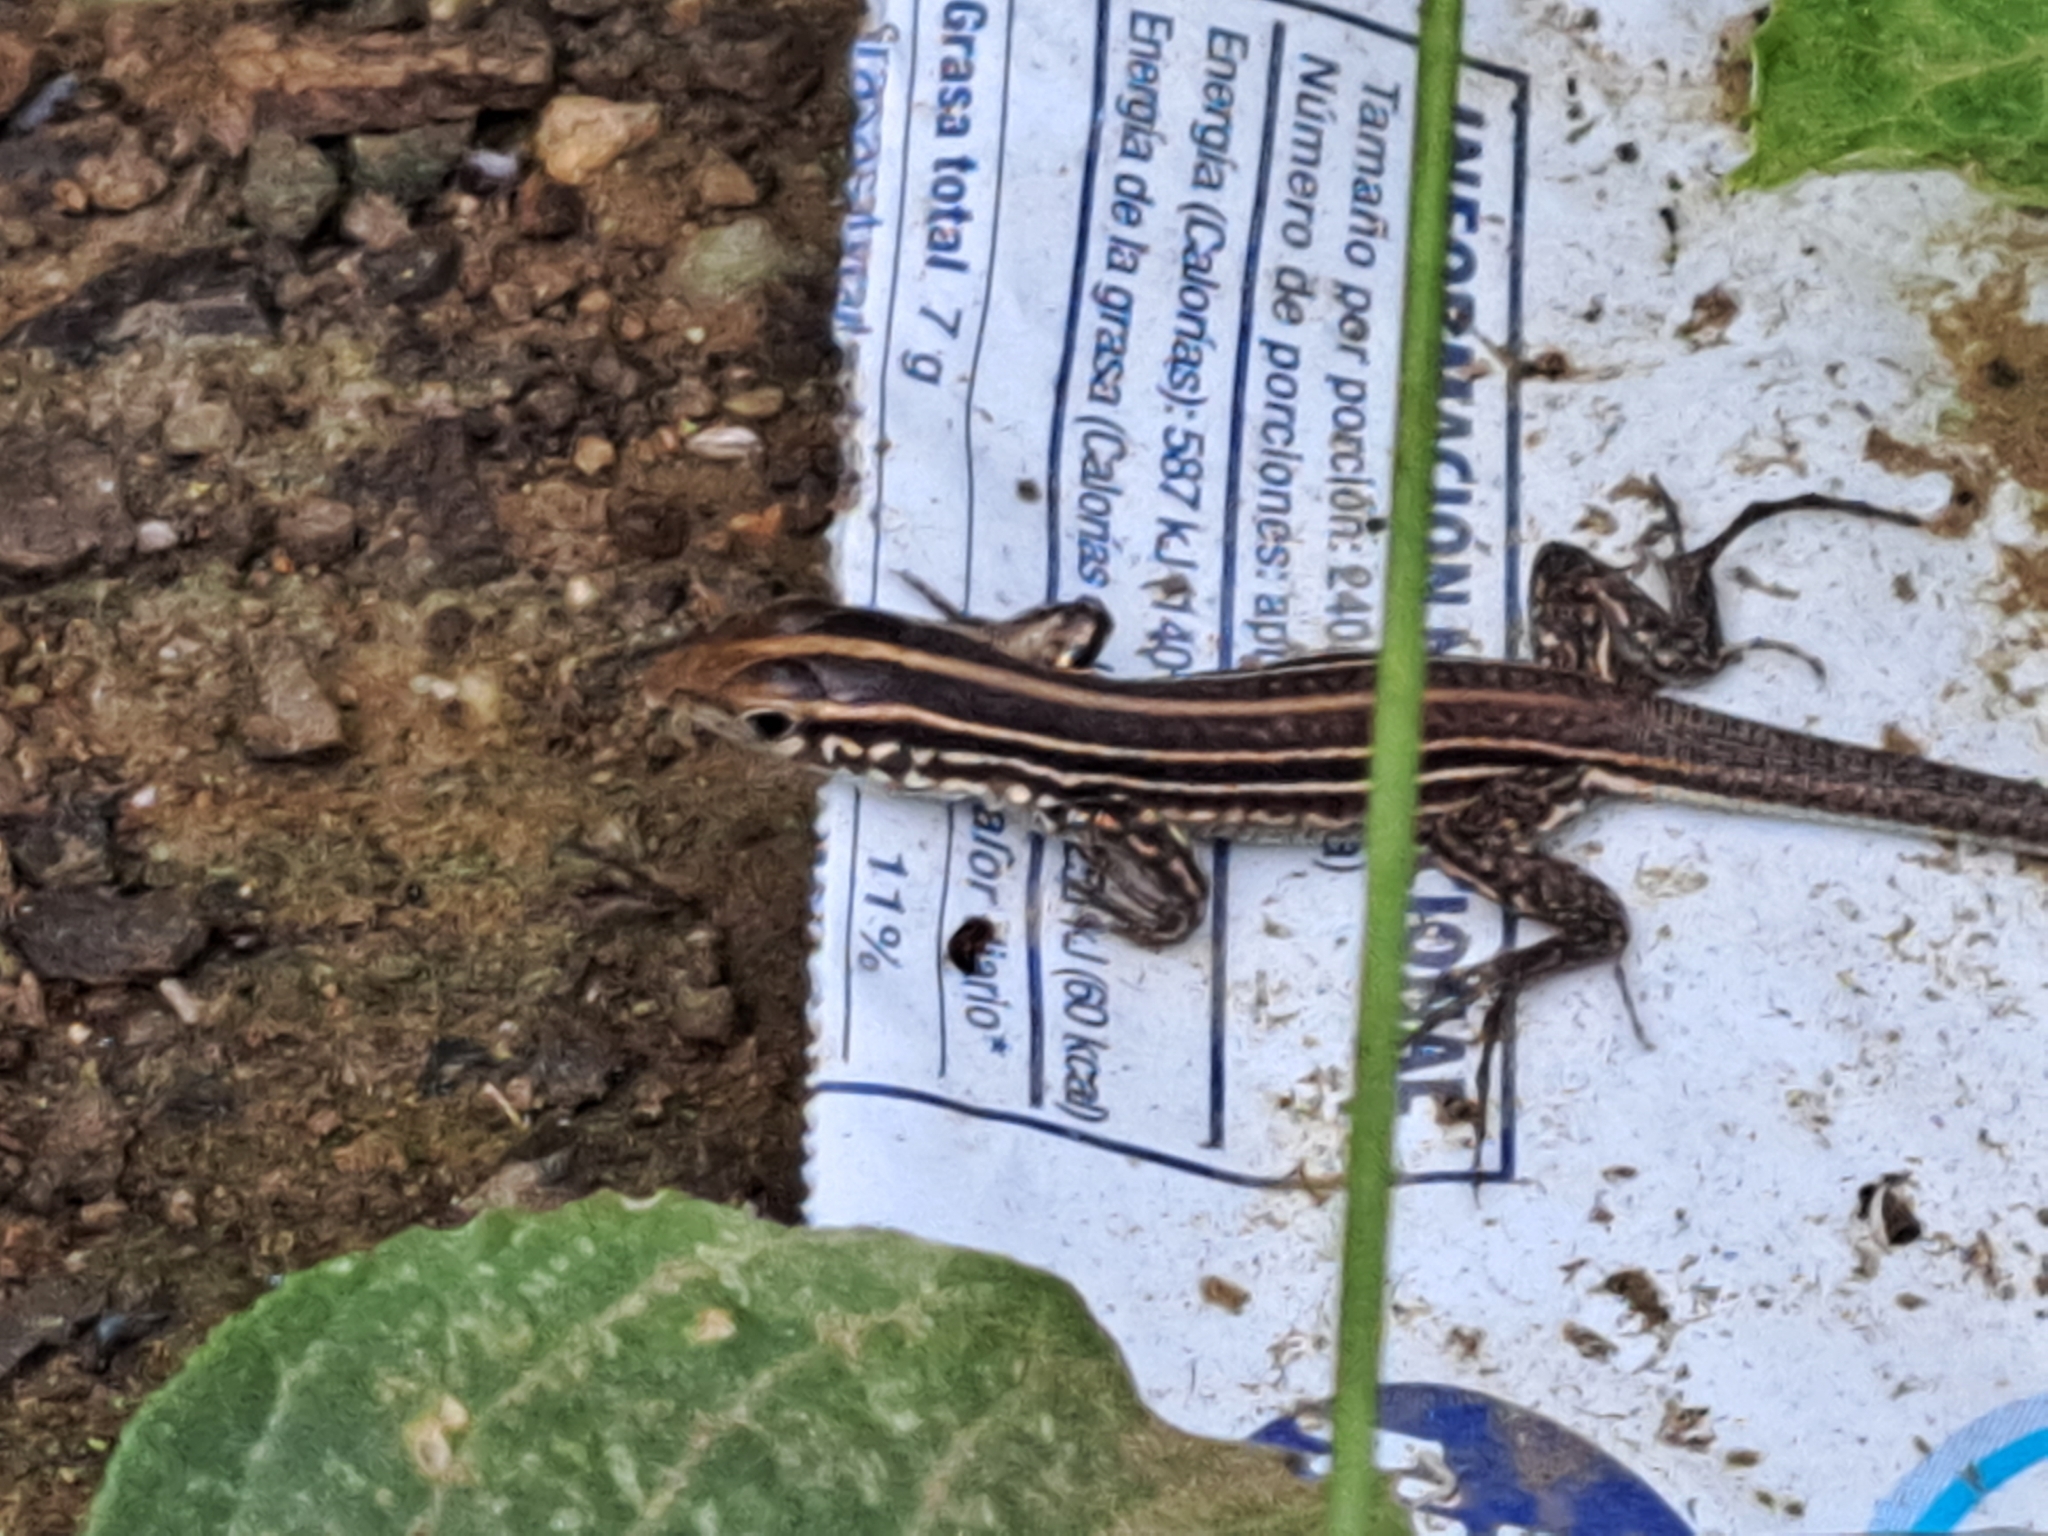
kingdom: Animalia
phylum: Chordata
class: Squamata
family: Teiidae
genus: Holcosus
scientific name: Holcosus septemlineatus
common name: Seven-lined ameiva
